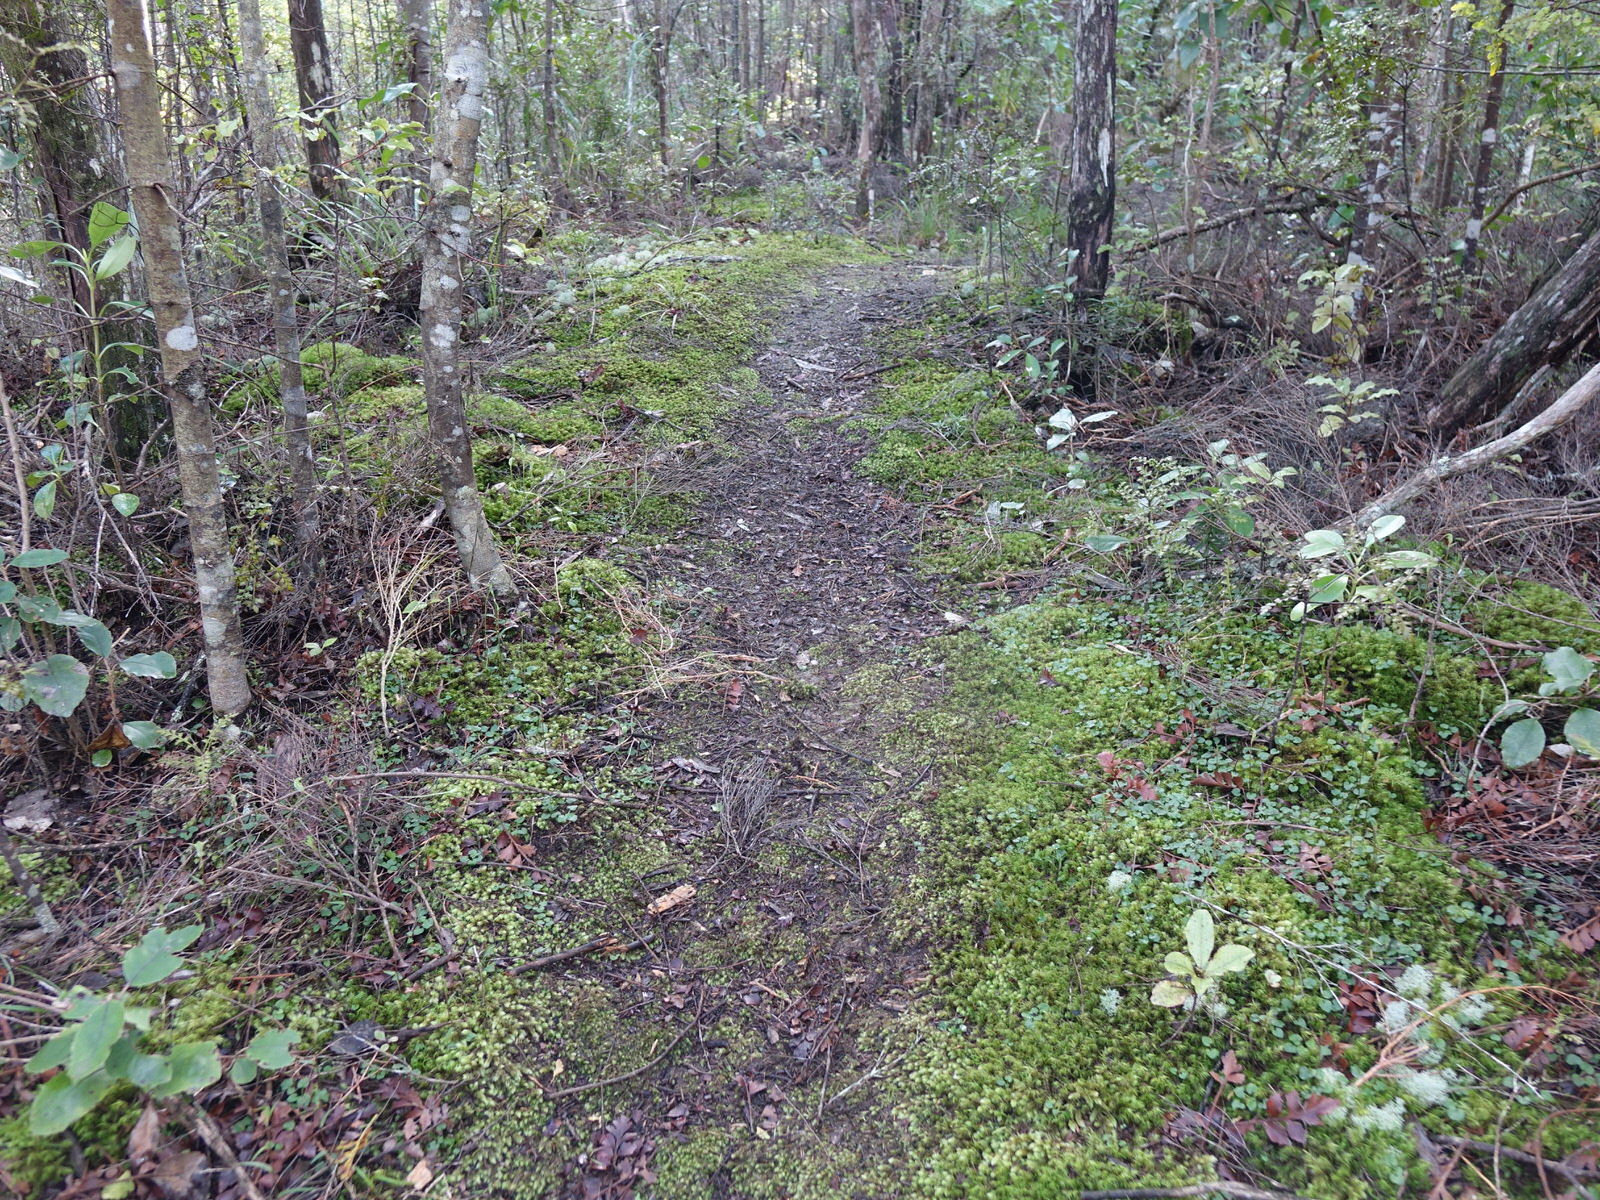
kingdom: Plantae
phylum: Tracheophyta
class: Liliopsida
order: Asparagales
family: Orchidaceae
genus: Pterostylis
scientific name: Pterostylis trullifolia
